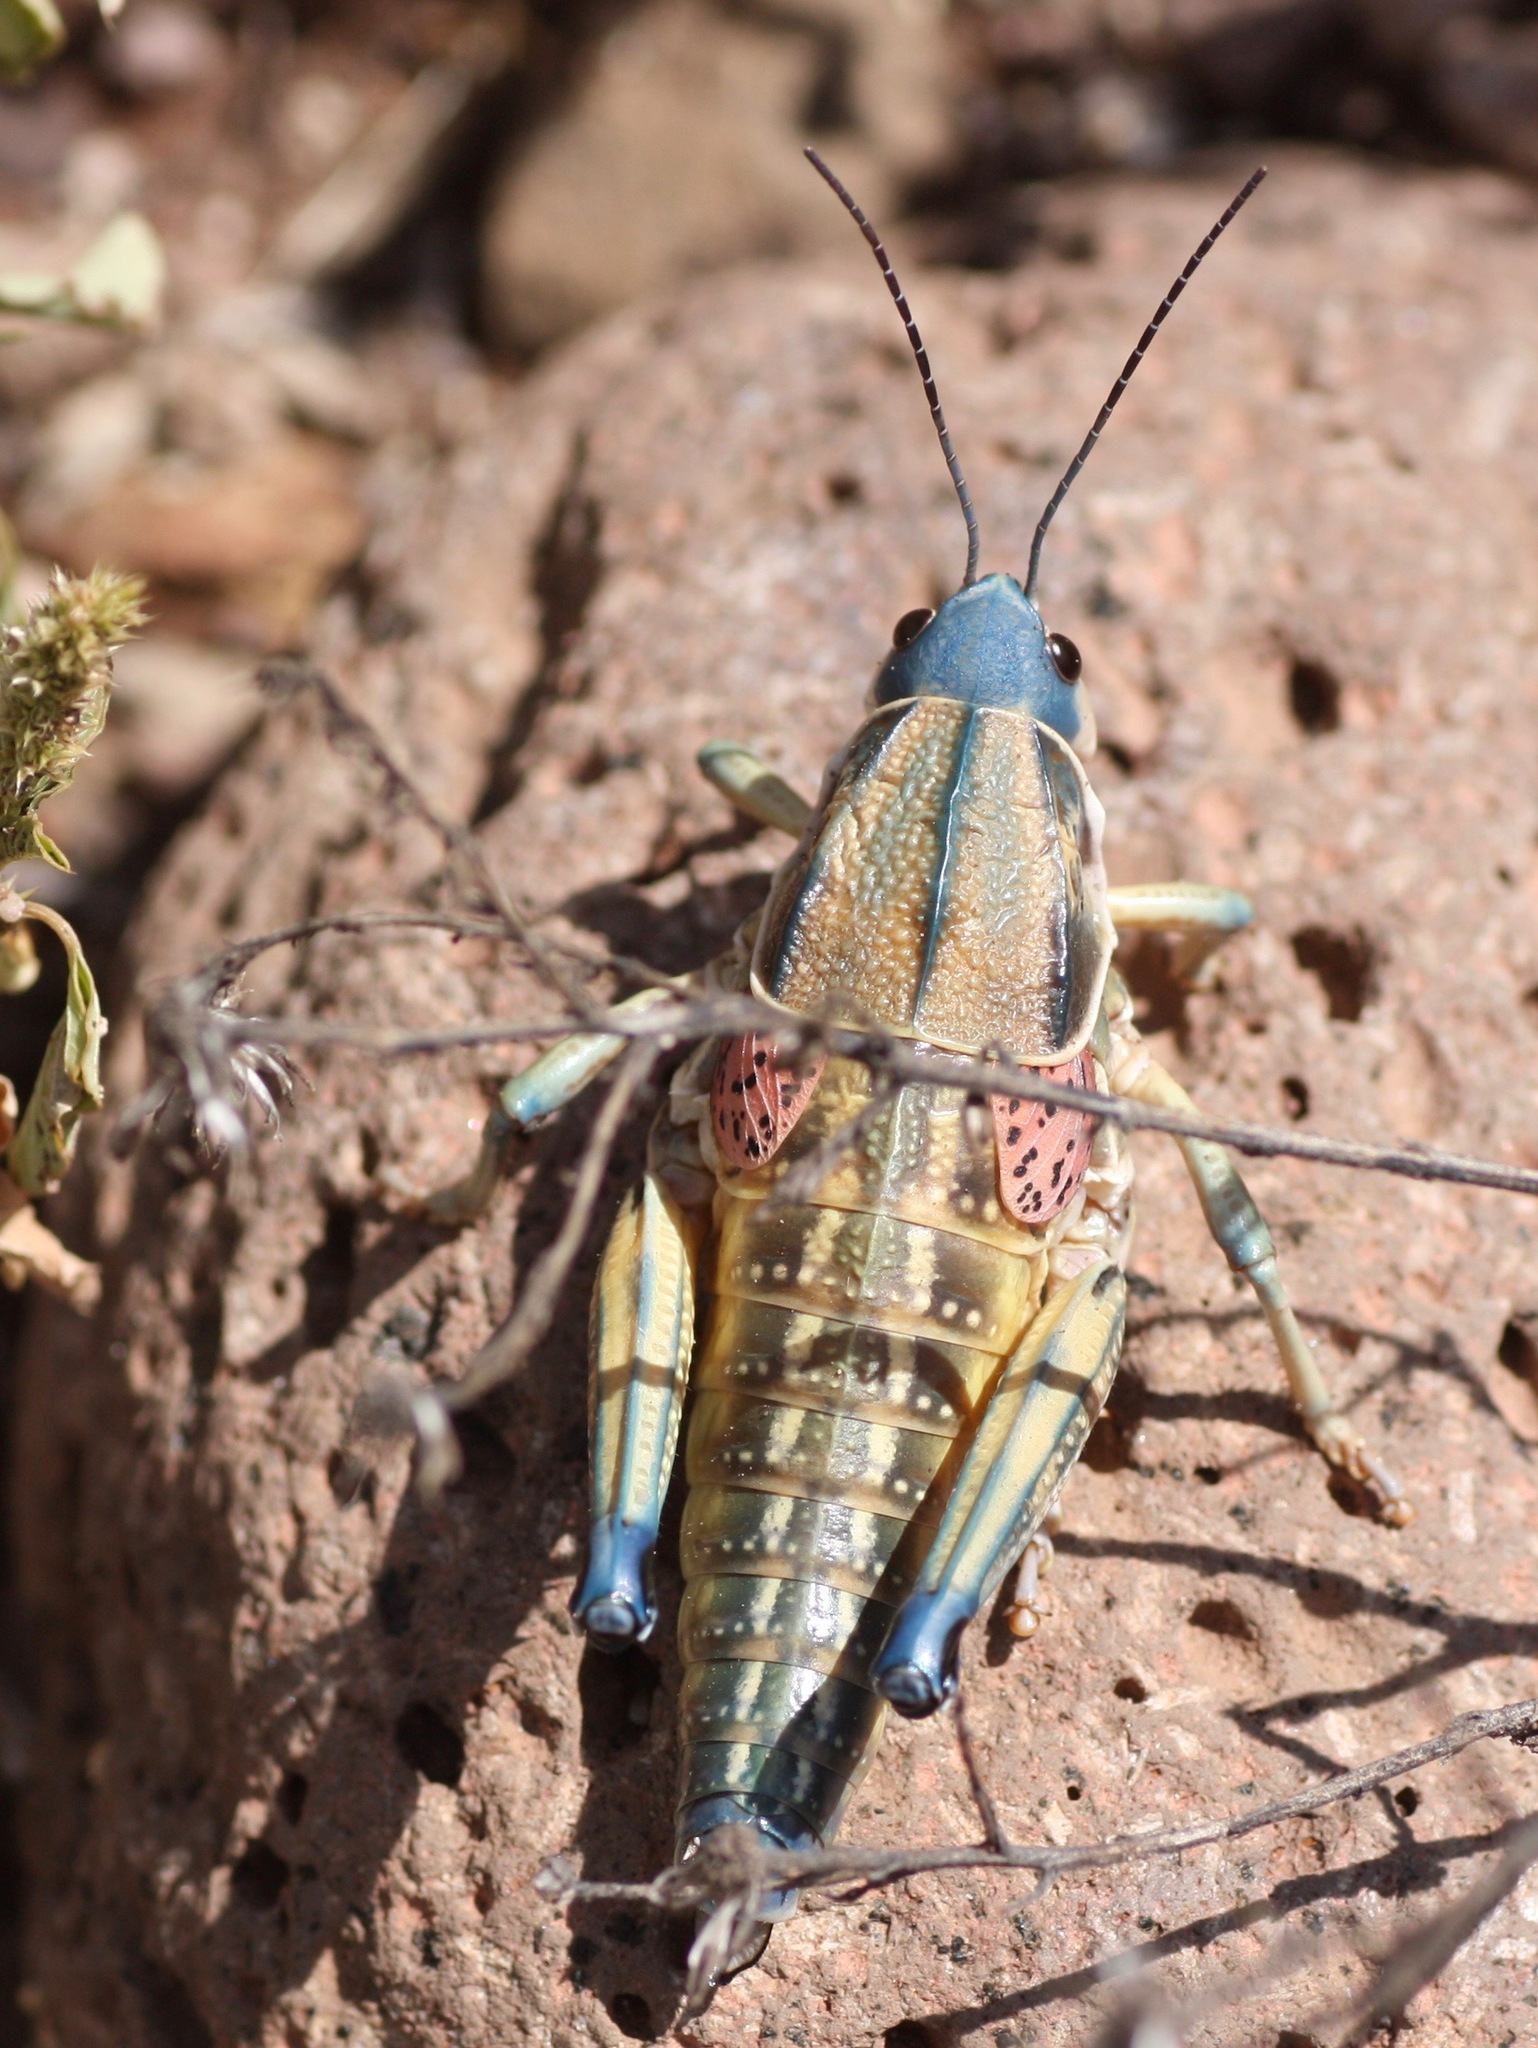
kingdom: Animalia
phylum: Arthropoda
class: Insecta
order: Orthoptera
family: Romaleidae
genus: Brachystola
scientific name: Brachystola magna
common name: Plains lubber grasshopper
